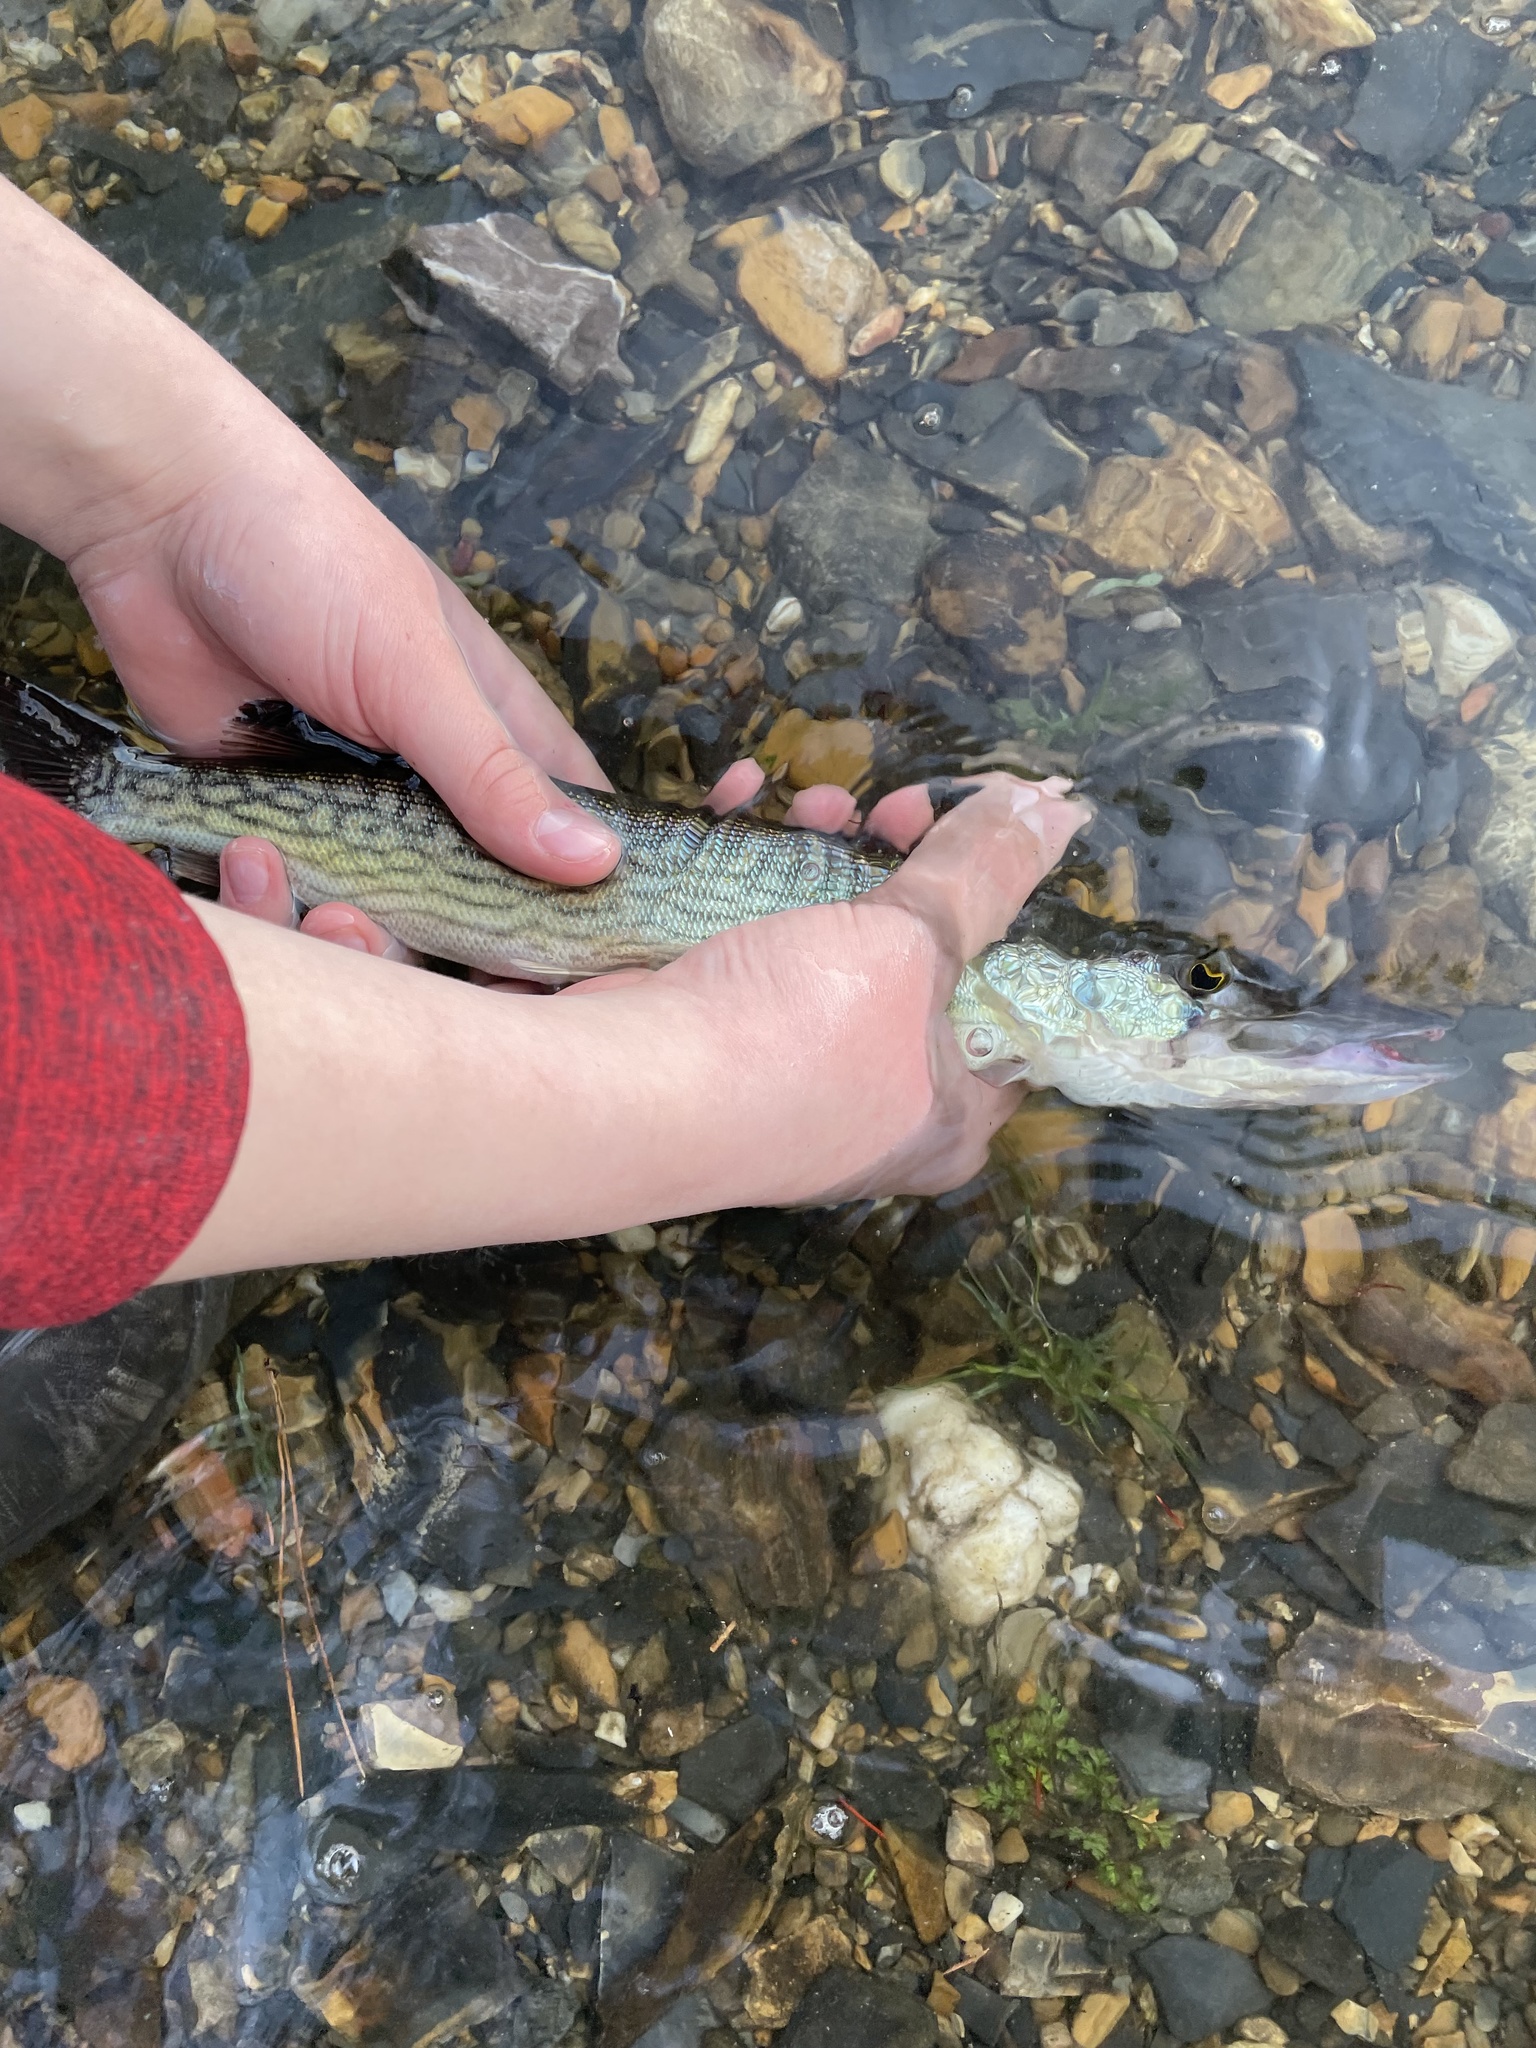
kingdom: Animalia
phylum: Chordata
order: Esociformes
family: Esocidae
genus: Esox
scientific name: Esox niger
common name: Chain pickerel
